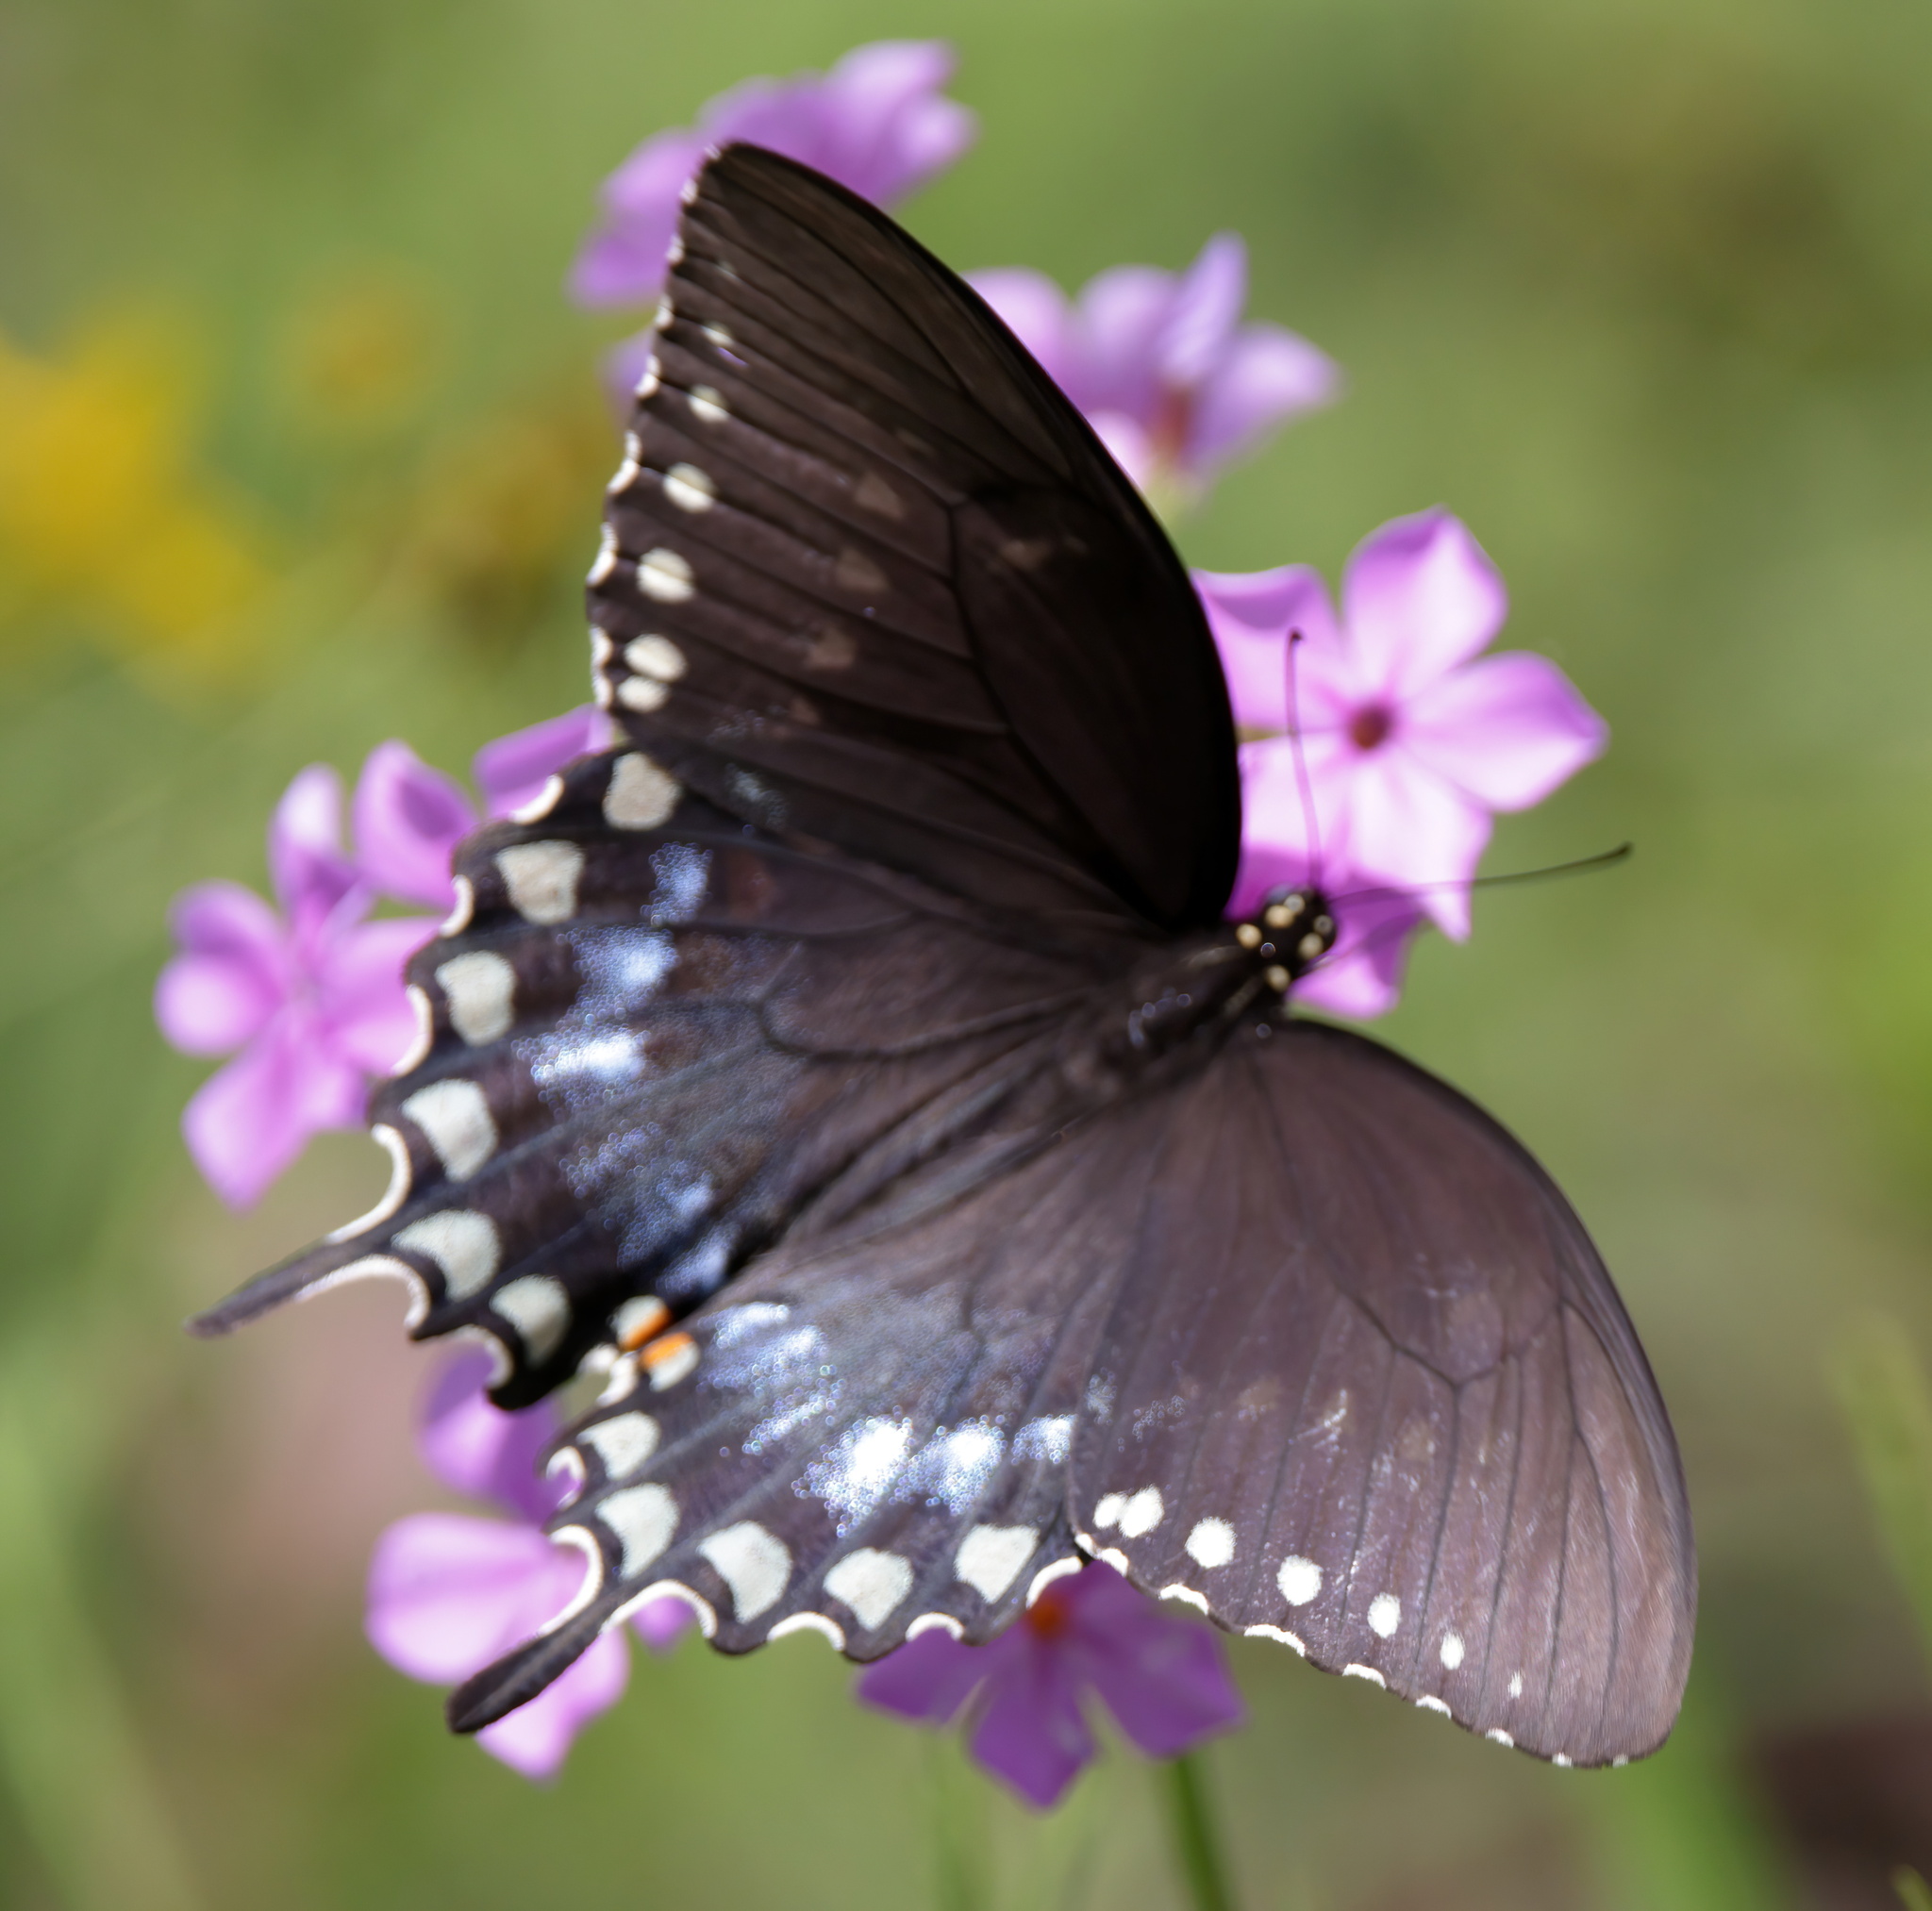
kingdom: Animalia
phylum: Arthropoda
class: Insecta
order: Lepidoptera
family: Papilionidae
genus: Papilio
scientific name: Papilio troilus
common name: Spicebush swallowtail
